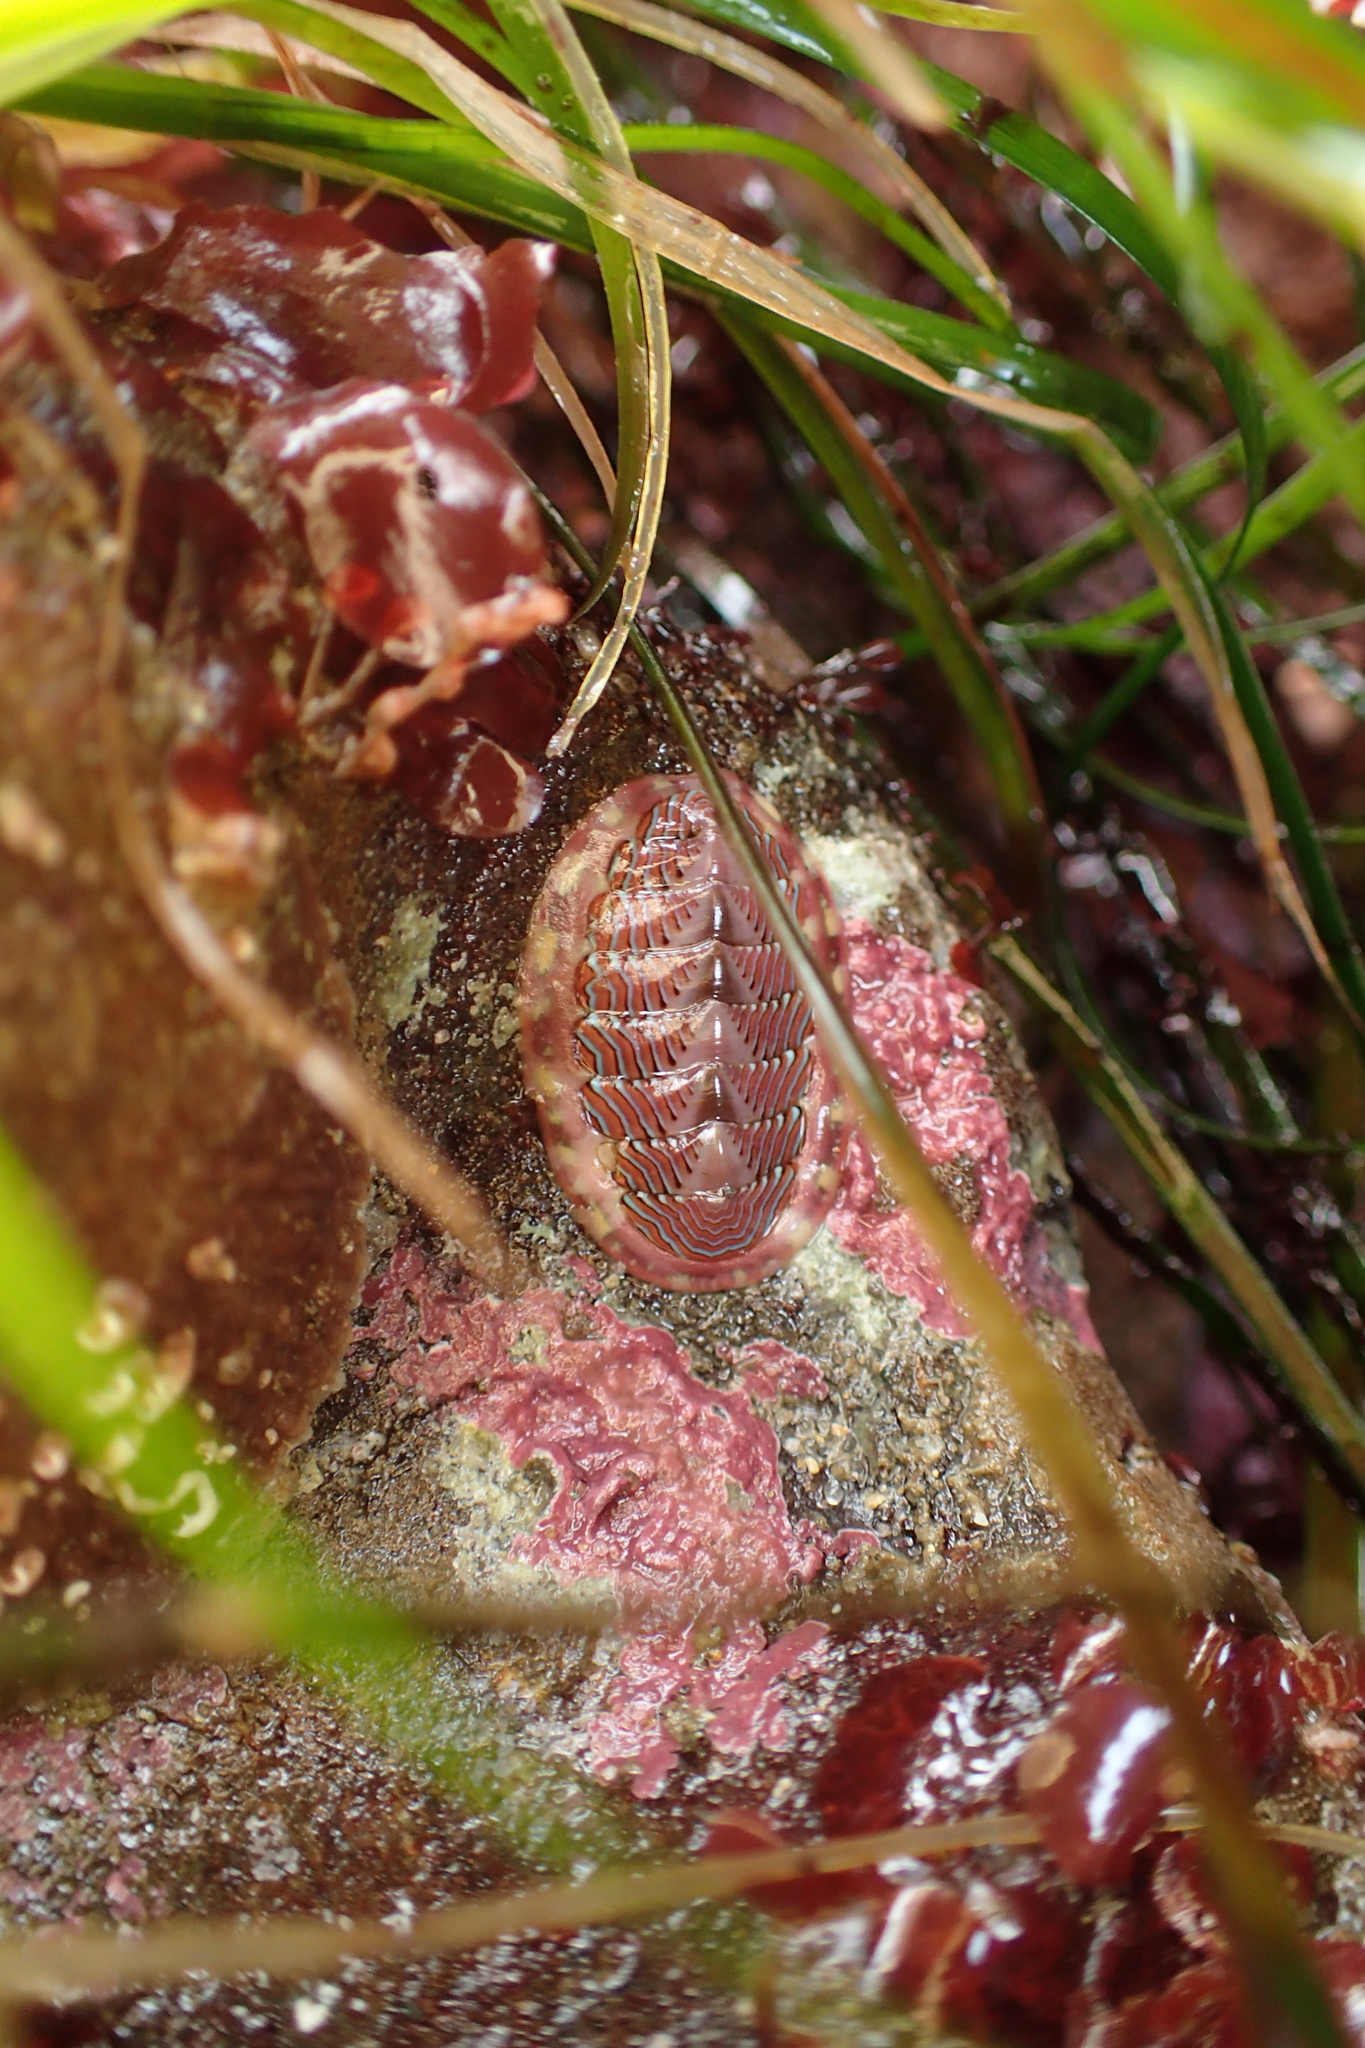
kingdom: Animalia
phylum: Mollusca
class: Polyplacophora
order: Chitonida
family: Tonicellidae
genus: Tonicella
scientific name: Tonicella lineata
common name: Lined chiton
